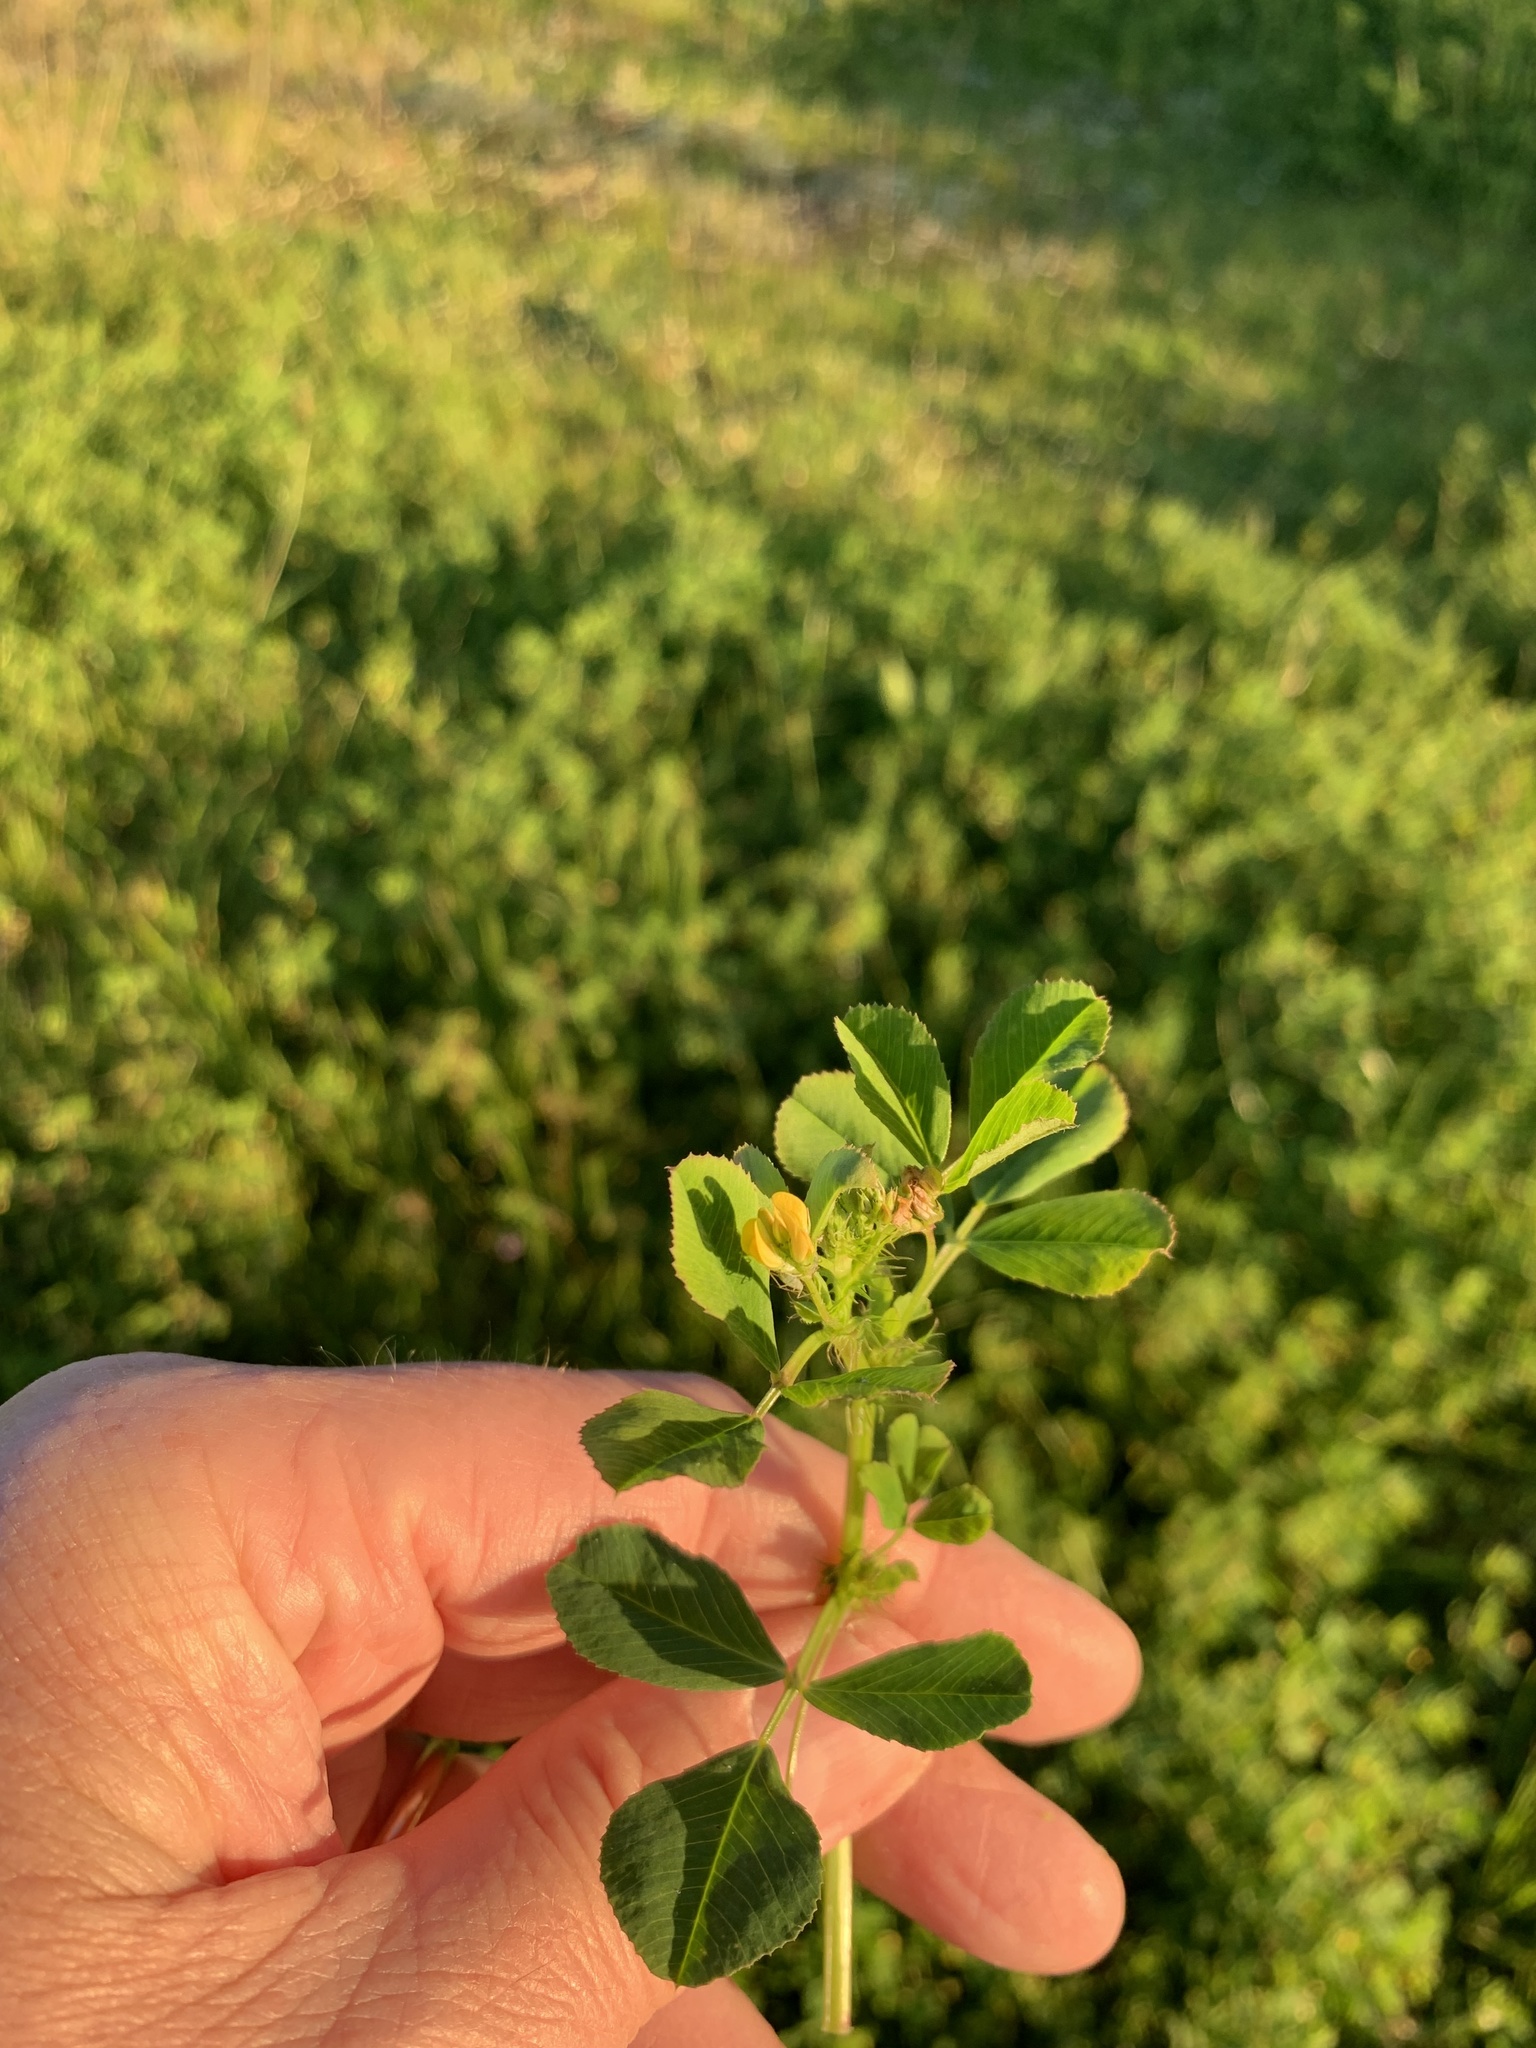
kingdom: Plantae
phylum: Tracheophyta
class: Magnoliopsida
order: Fabales
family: Fabaceae
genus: Medicago
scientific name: Medicago polymorpha
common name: Burclover
